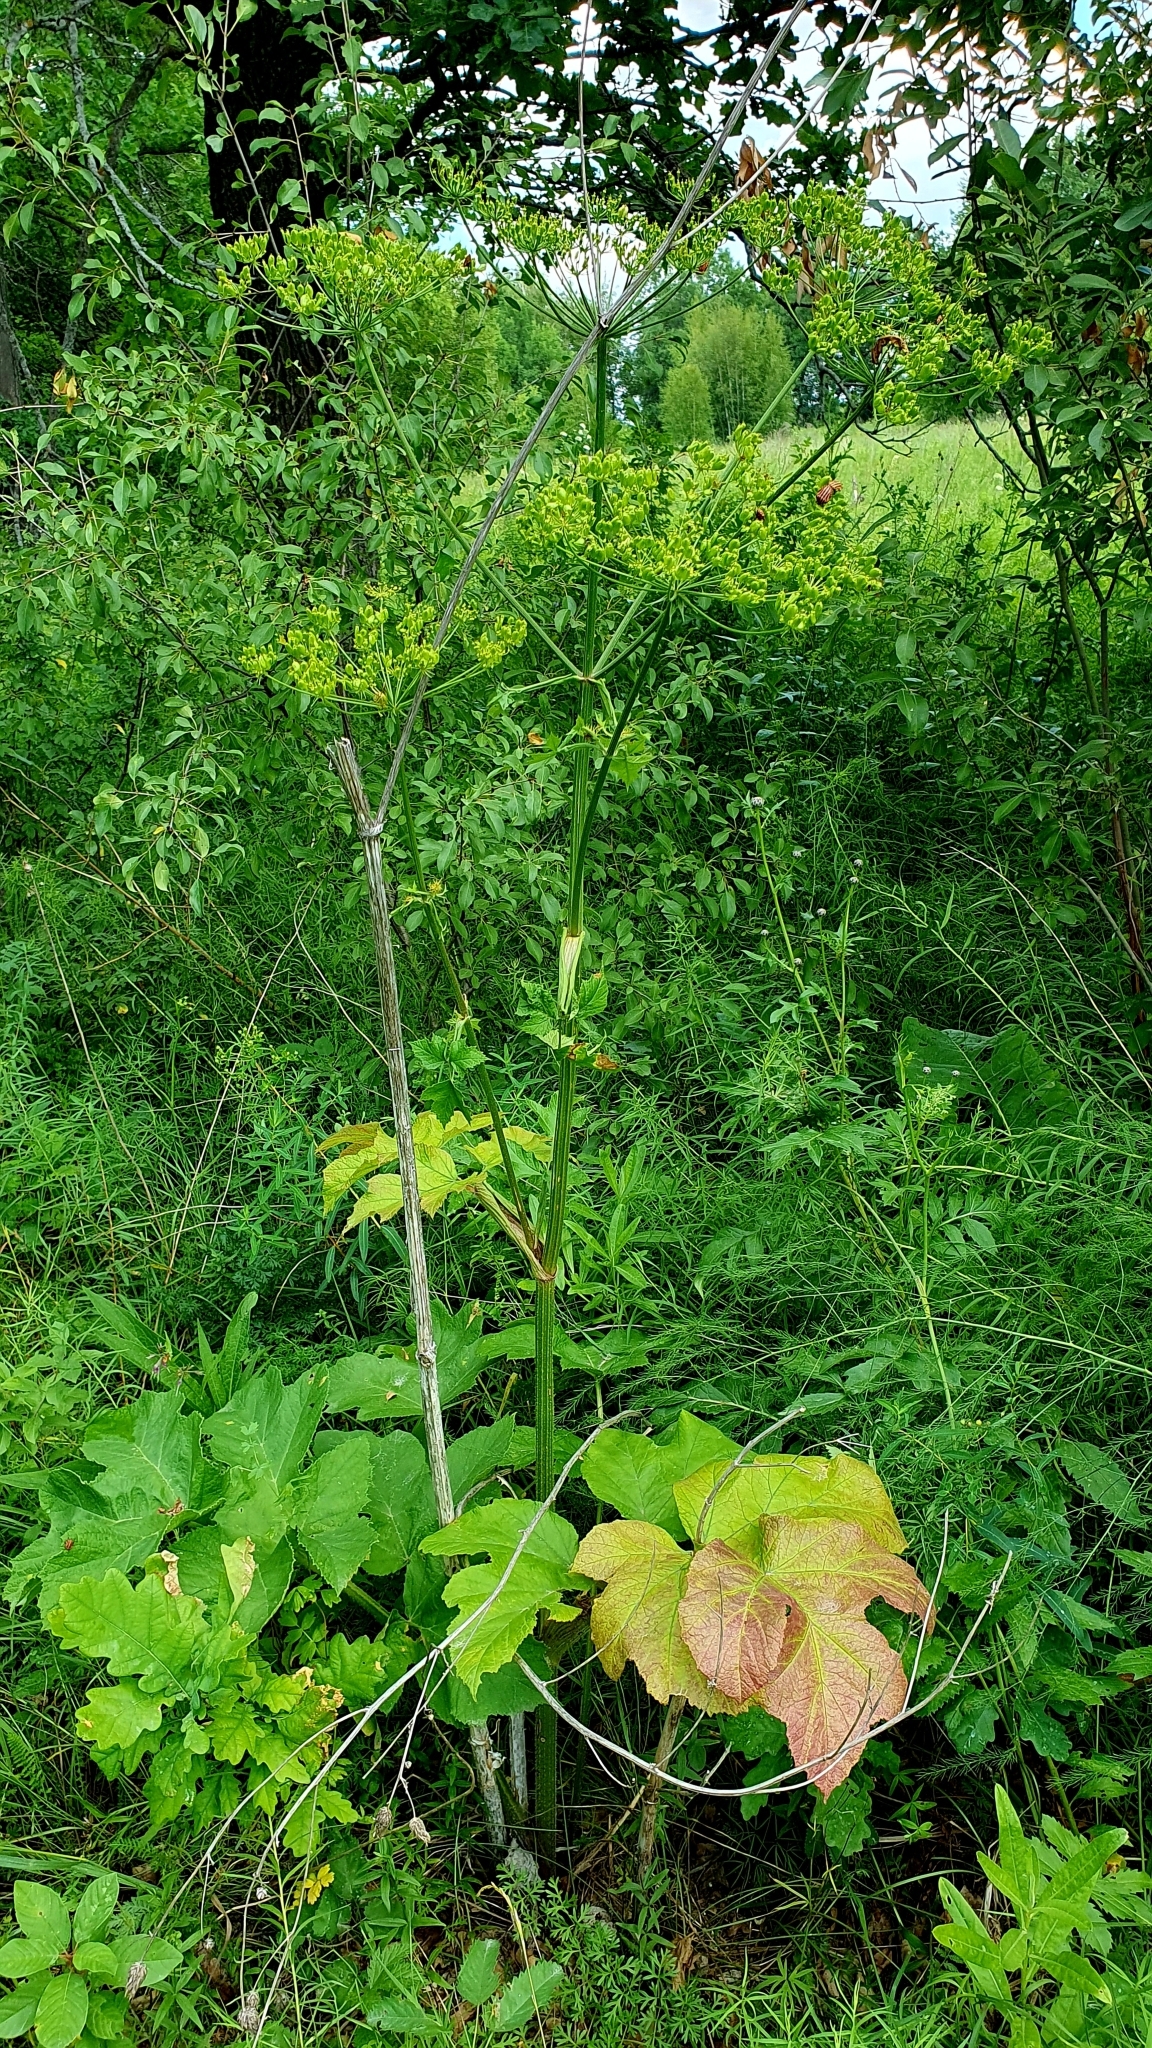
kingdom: Plantae
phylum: Tracheophyta
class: Magnoliopsida
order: Apiales
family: Apiaceae
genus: Heracleum
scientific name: Heracleum sphondylium
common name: Hogweed
